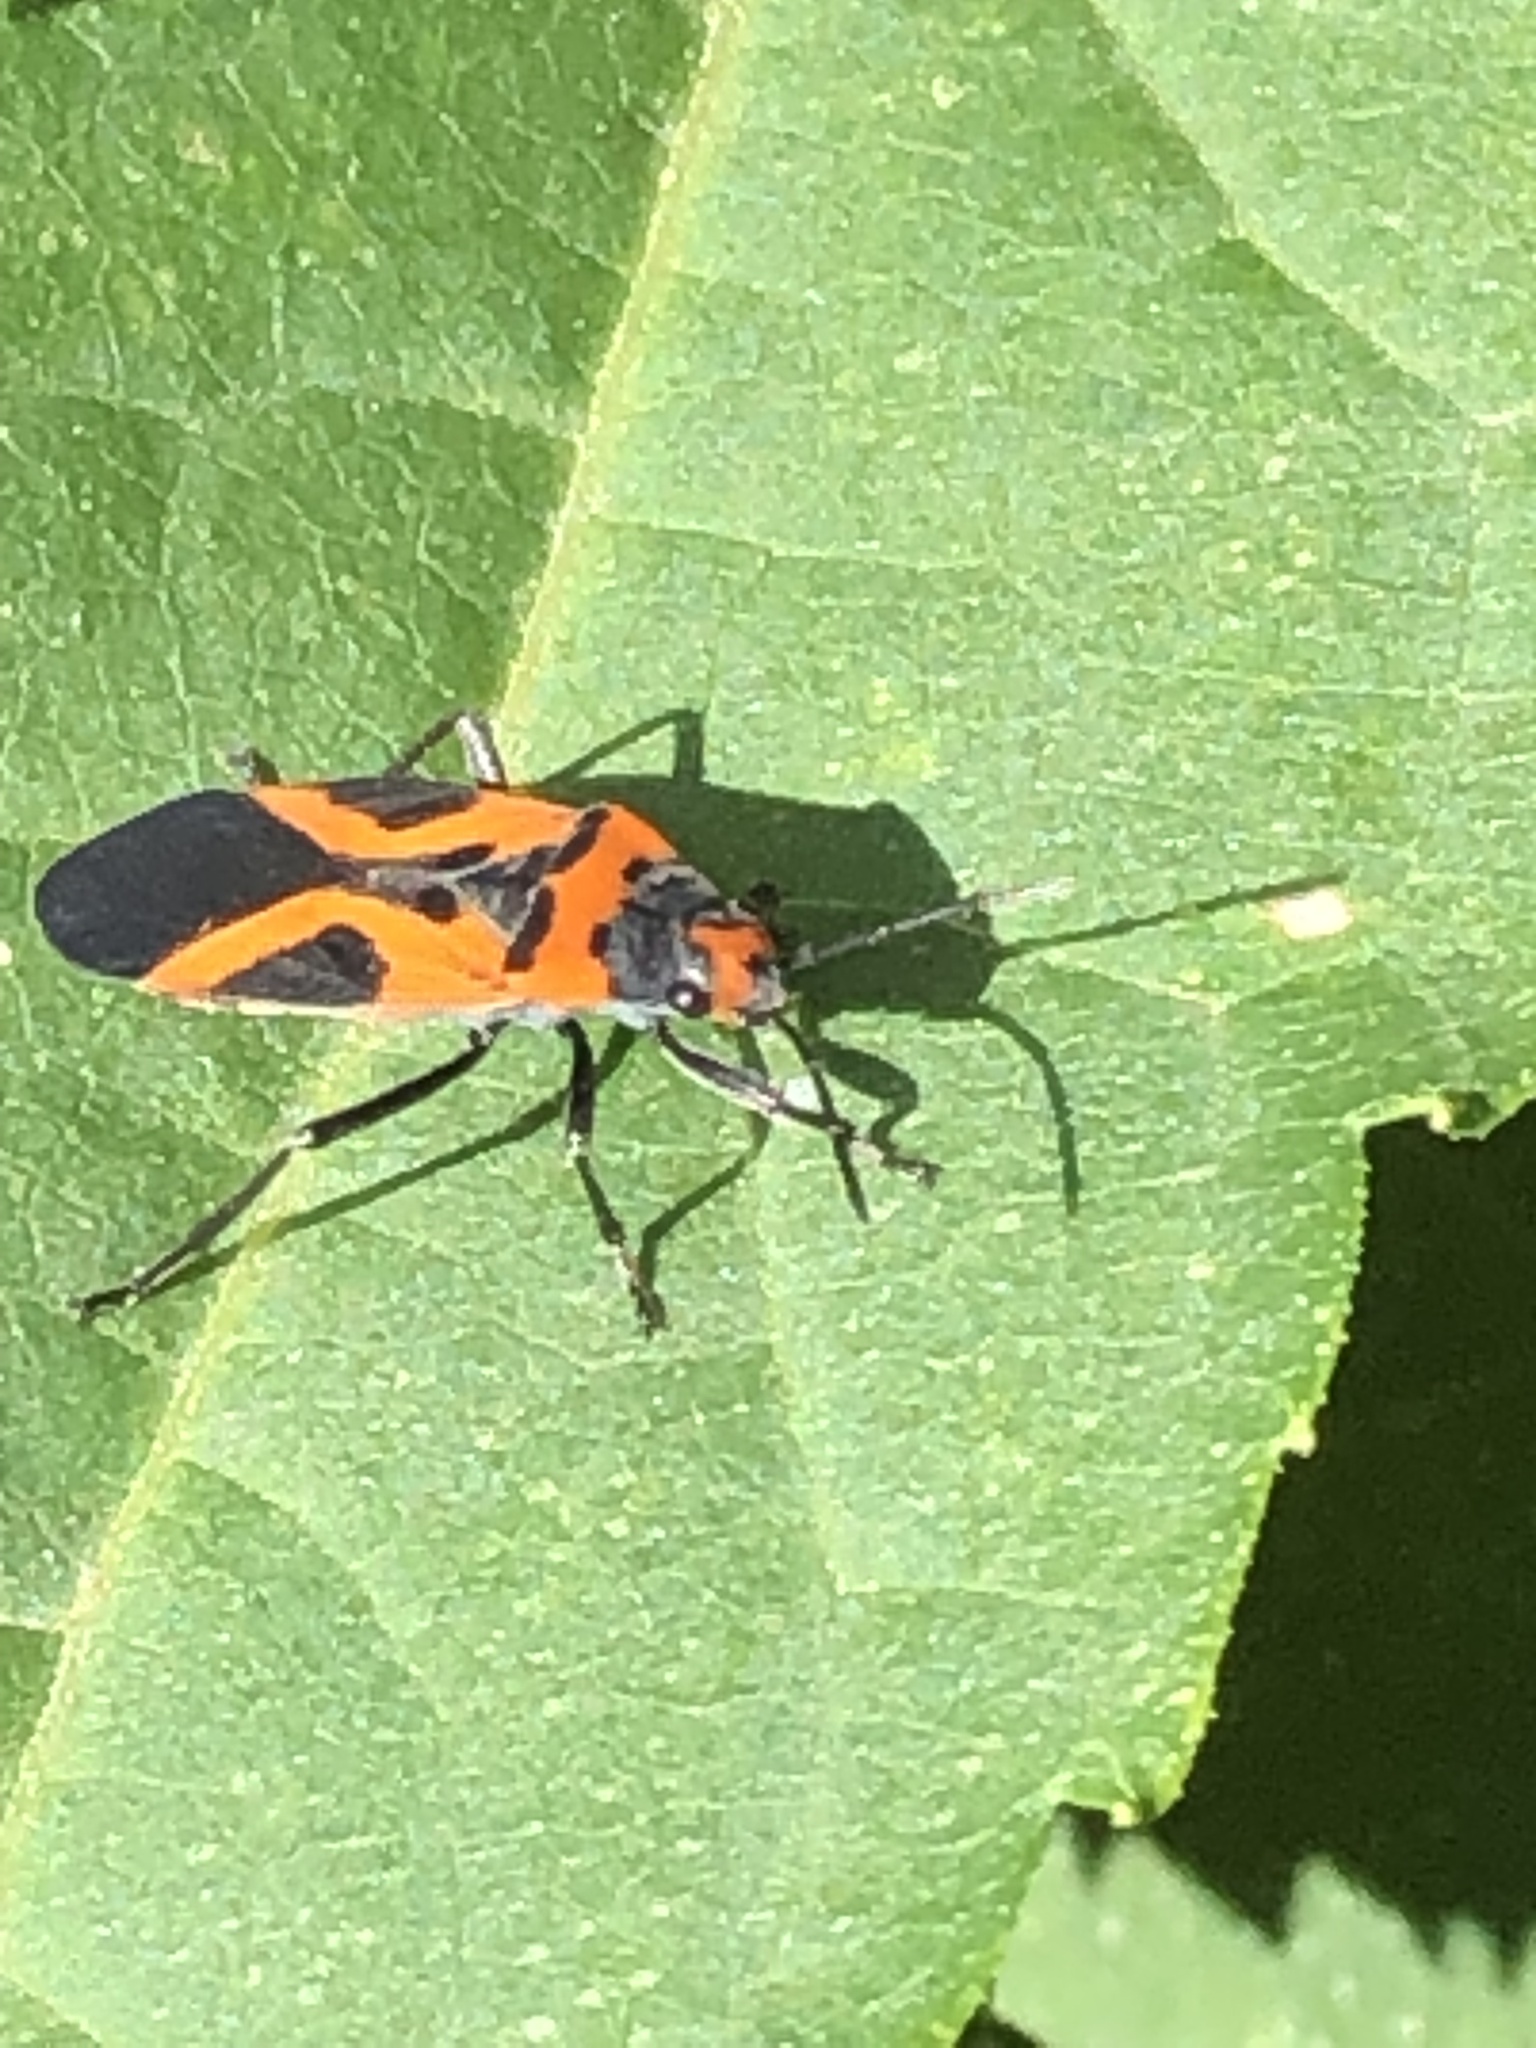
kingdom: Animalia
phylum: Arthropoda
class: Insecta
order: Hemiptera
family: Lygaeidae
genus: Lygaeus
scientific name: Lygaeus turcicus
